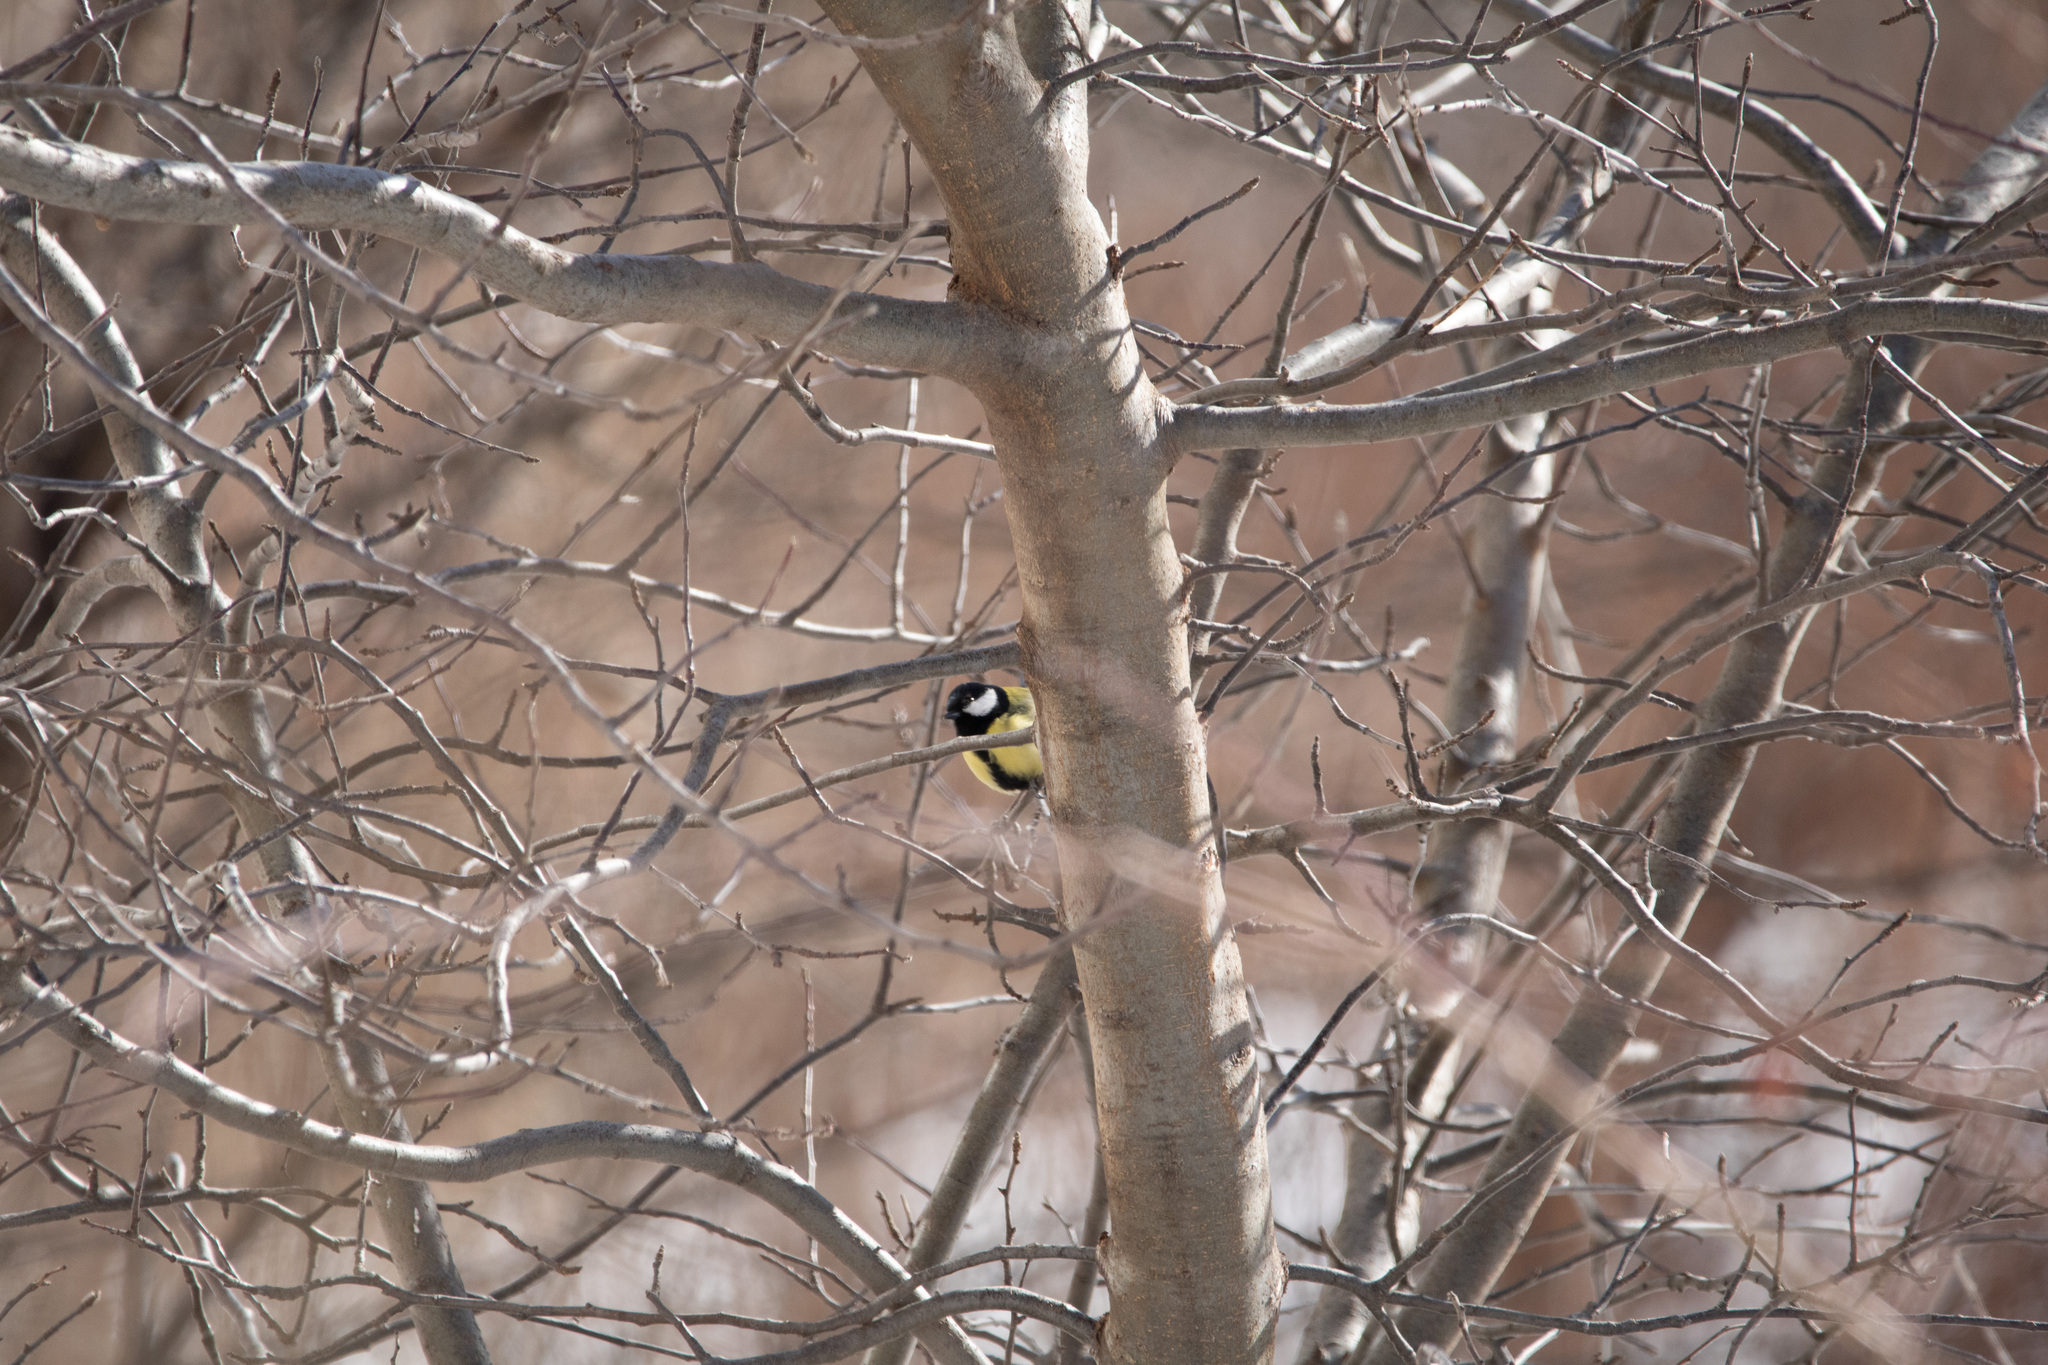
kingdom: Animalia
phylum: Chordata
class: Aves
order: Passeriformes
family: Paridae
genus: Parus
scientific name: Parus major
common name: Great tit
